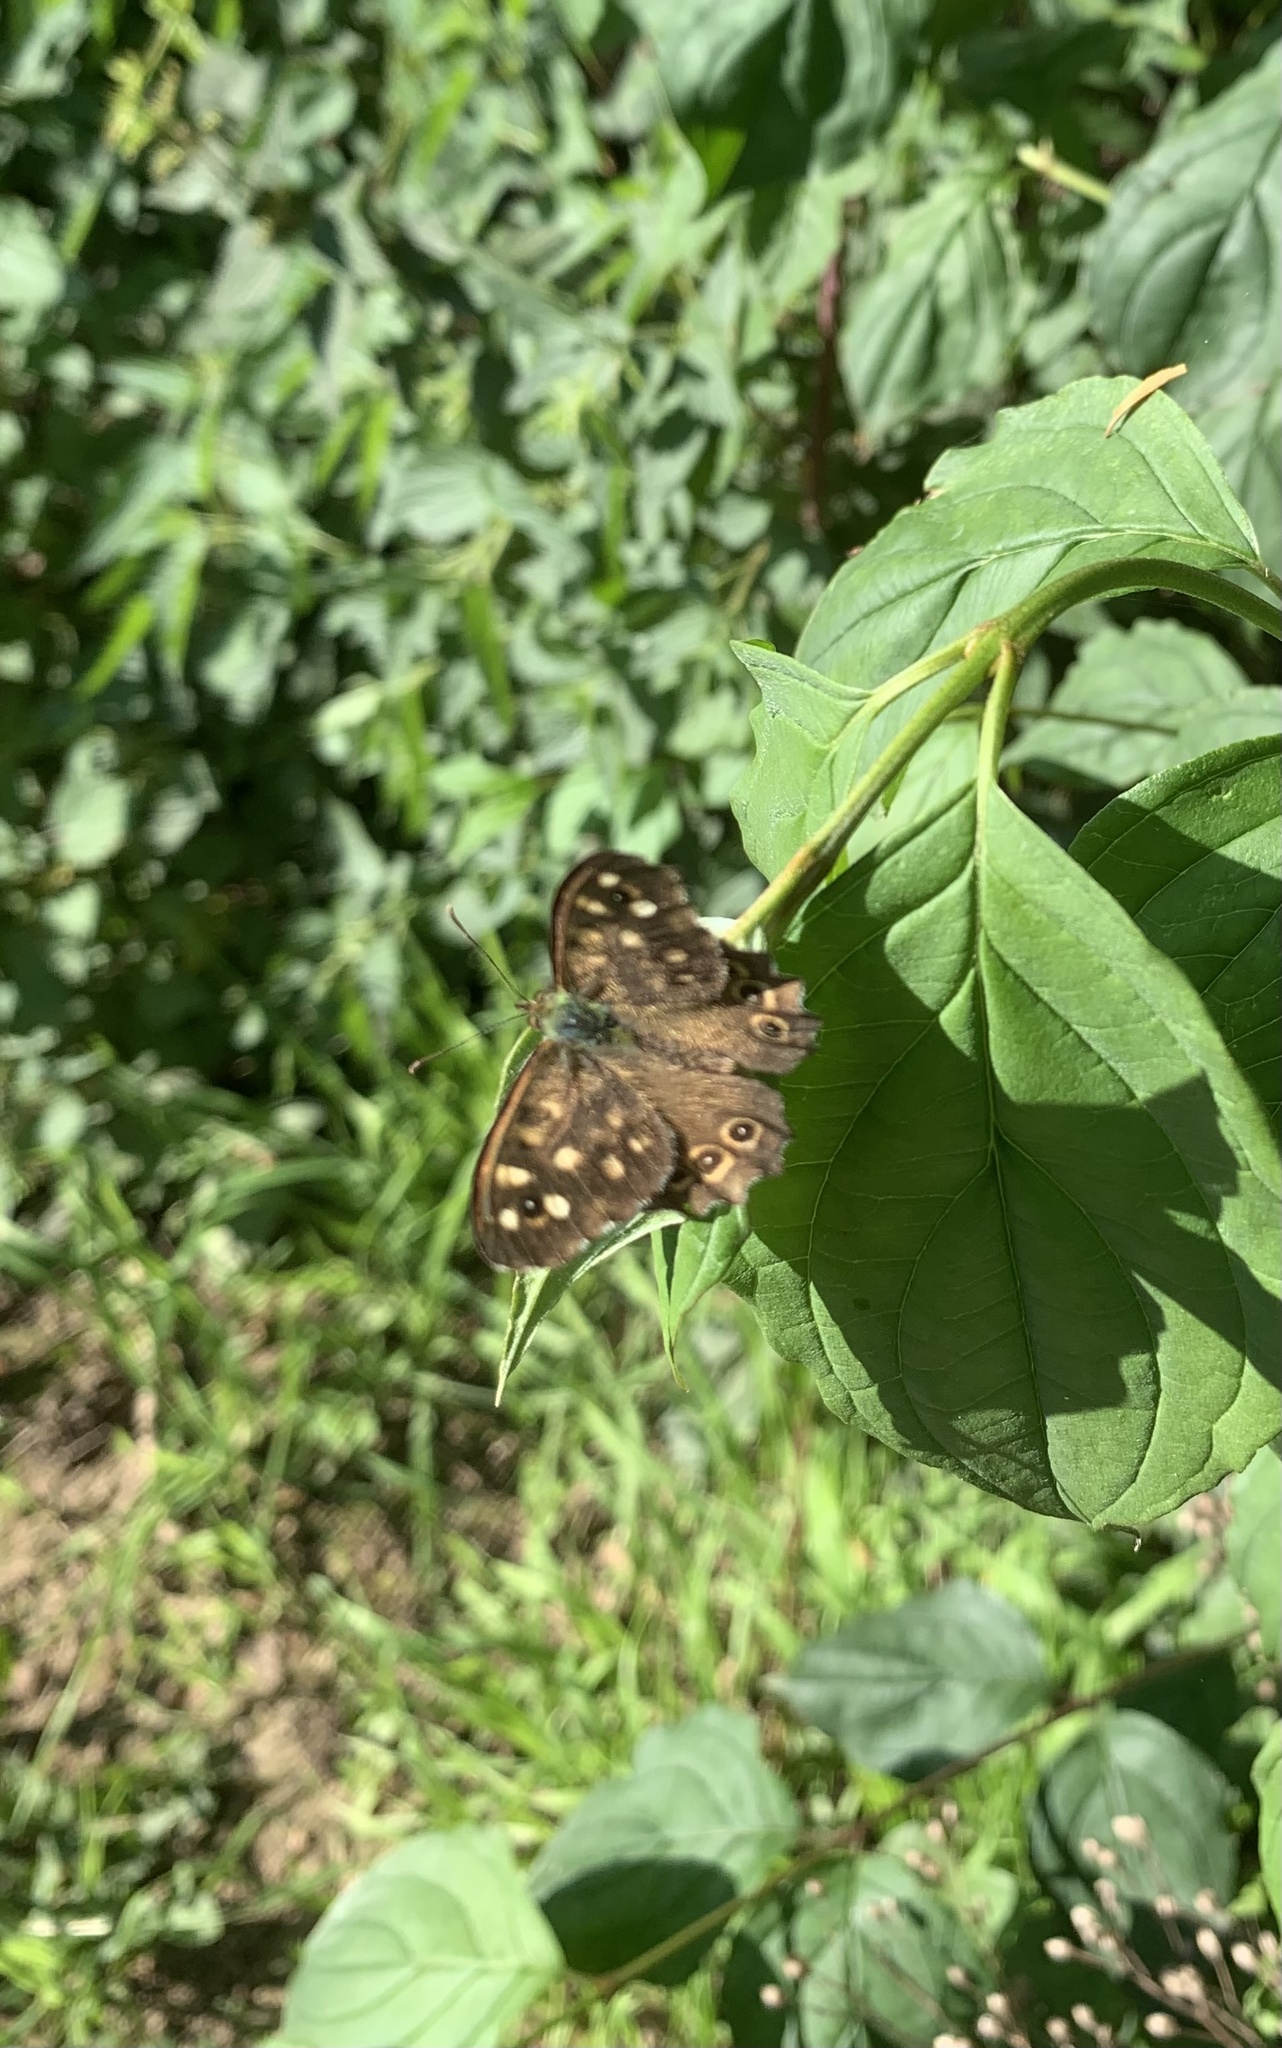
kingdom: Animalia
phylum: Arthropoda
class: Insecta
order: Lepidoptera
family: Nymphalidae
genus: Pararge
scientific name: Pararge aegeria
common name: Speckled wood
